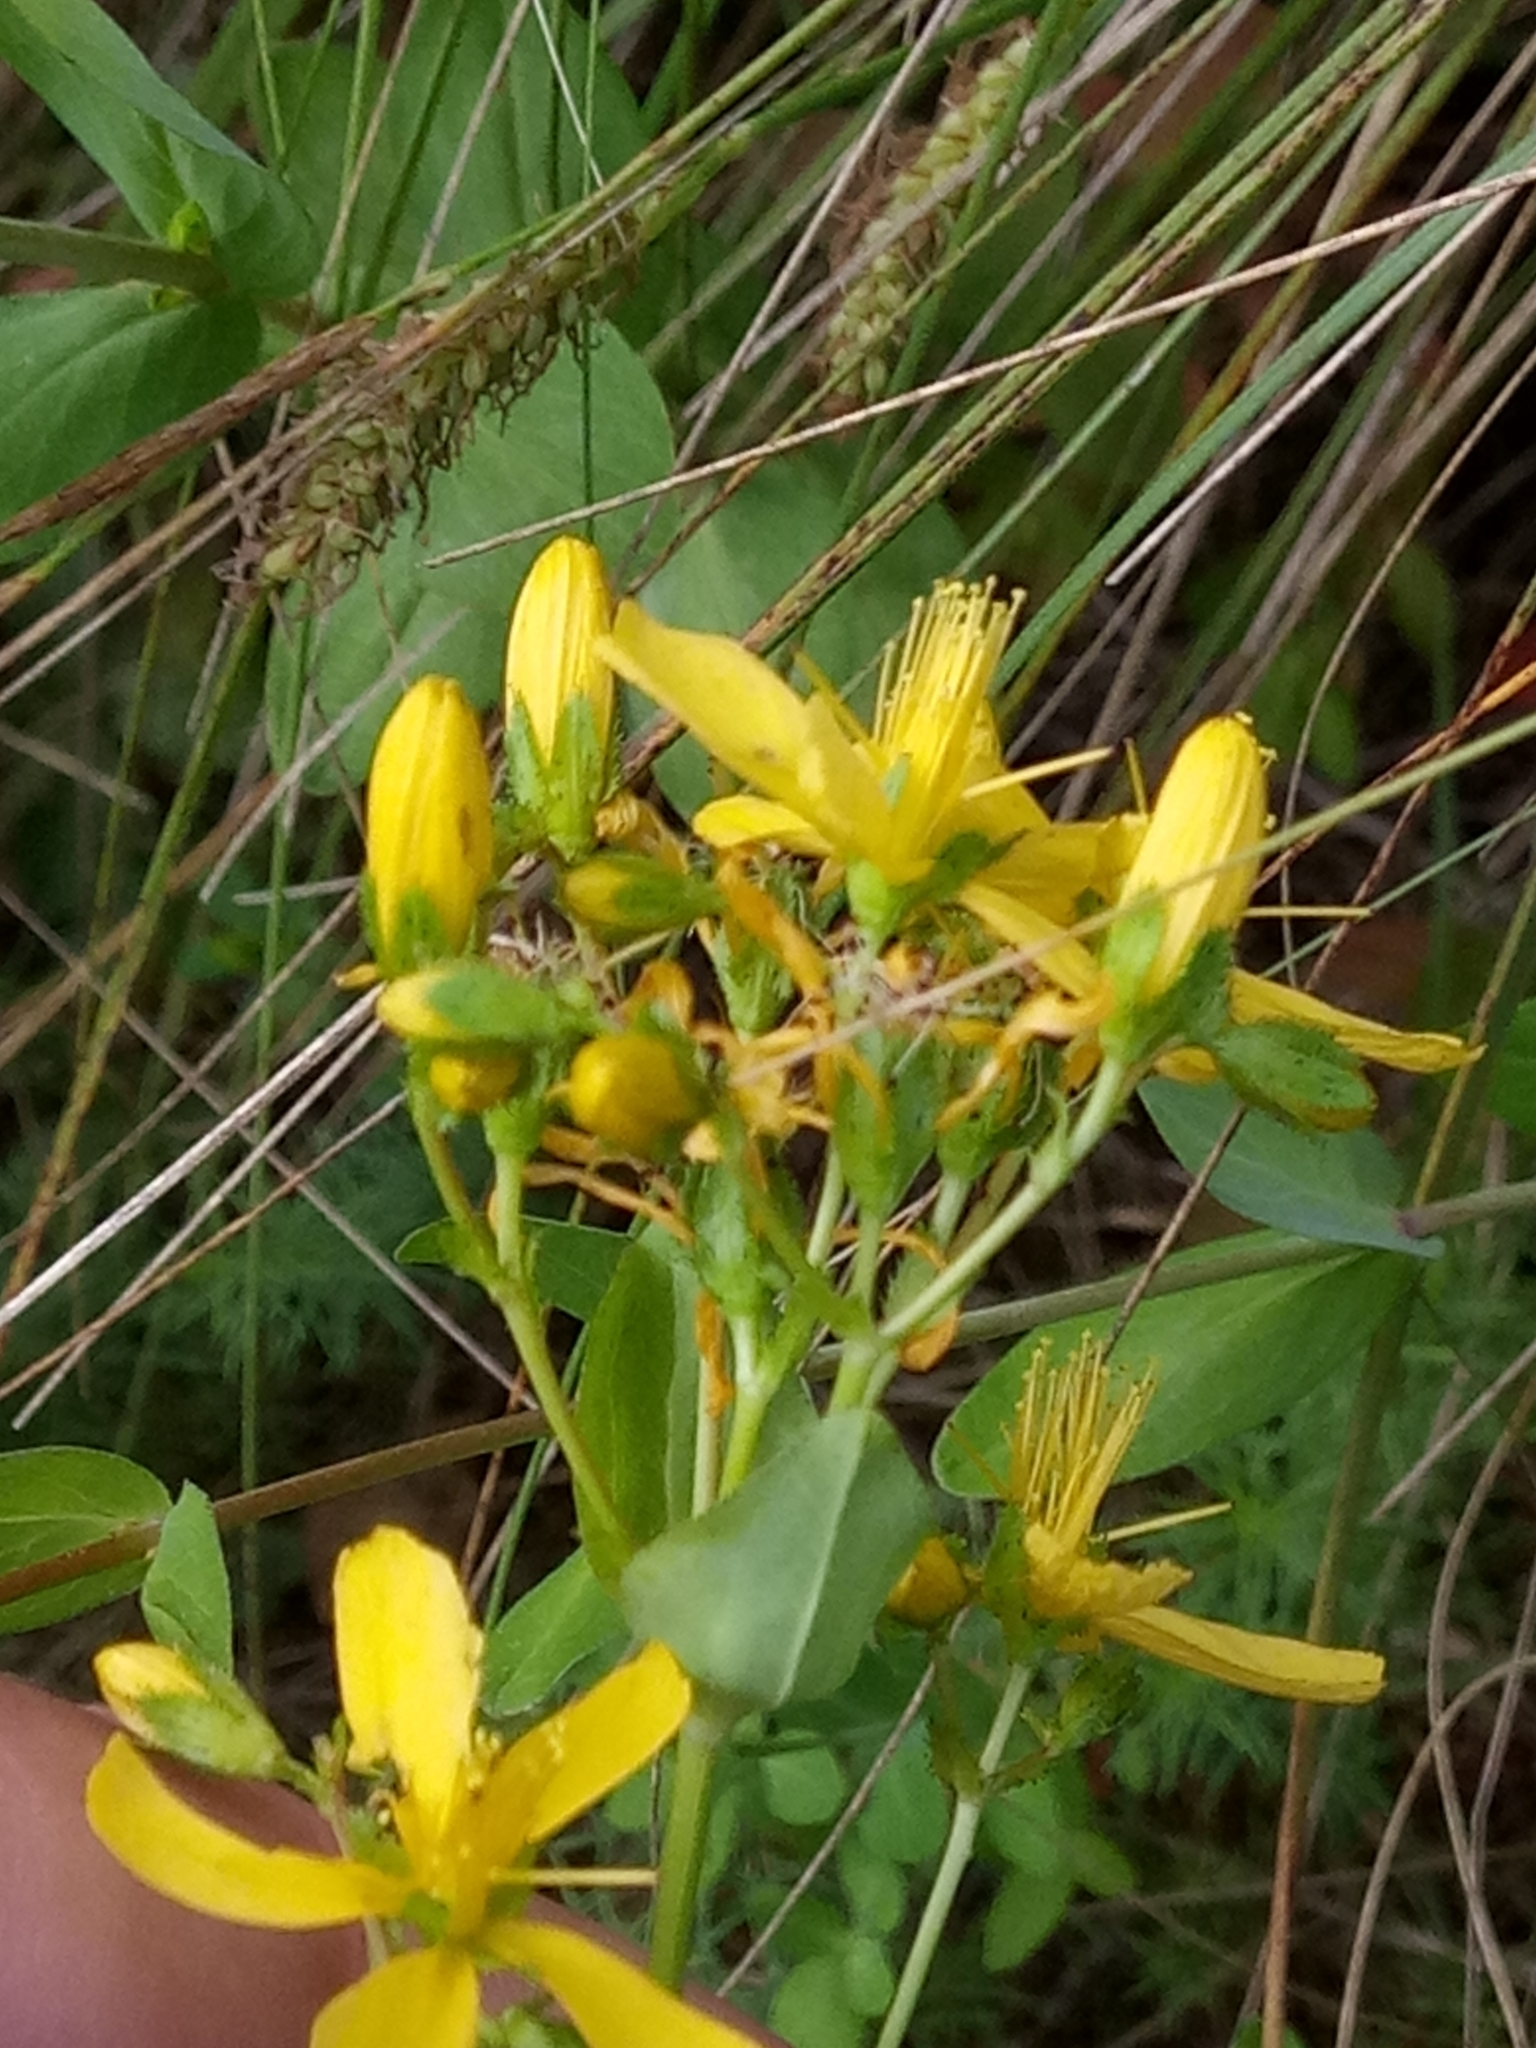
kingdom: Plantae
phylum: Tracheophyta
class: Magnoliopsida
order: Malpighiales
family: Hypericaceae
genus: Hypericum
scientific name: Hypericum perfoliatum
